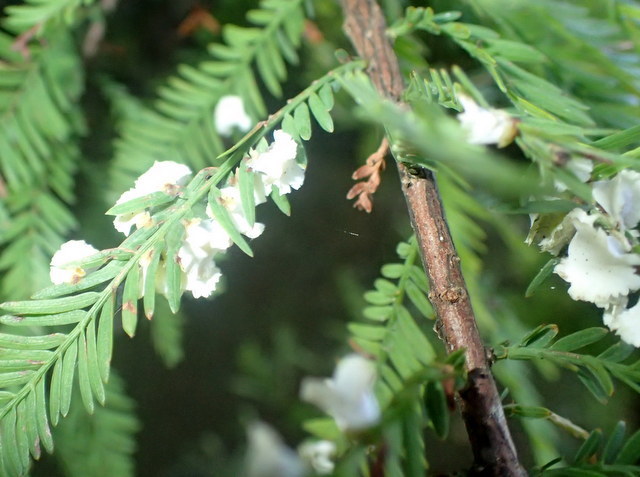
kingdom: Animalia
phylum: Arthropoda
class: Insecta
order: Diptera
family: Cecidomyiidae
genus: Taxodiomyia
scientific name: Taxodiomyia cupressi
